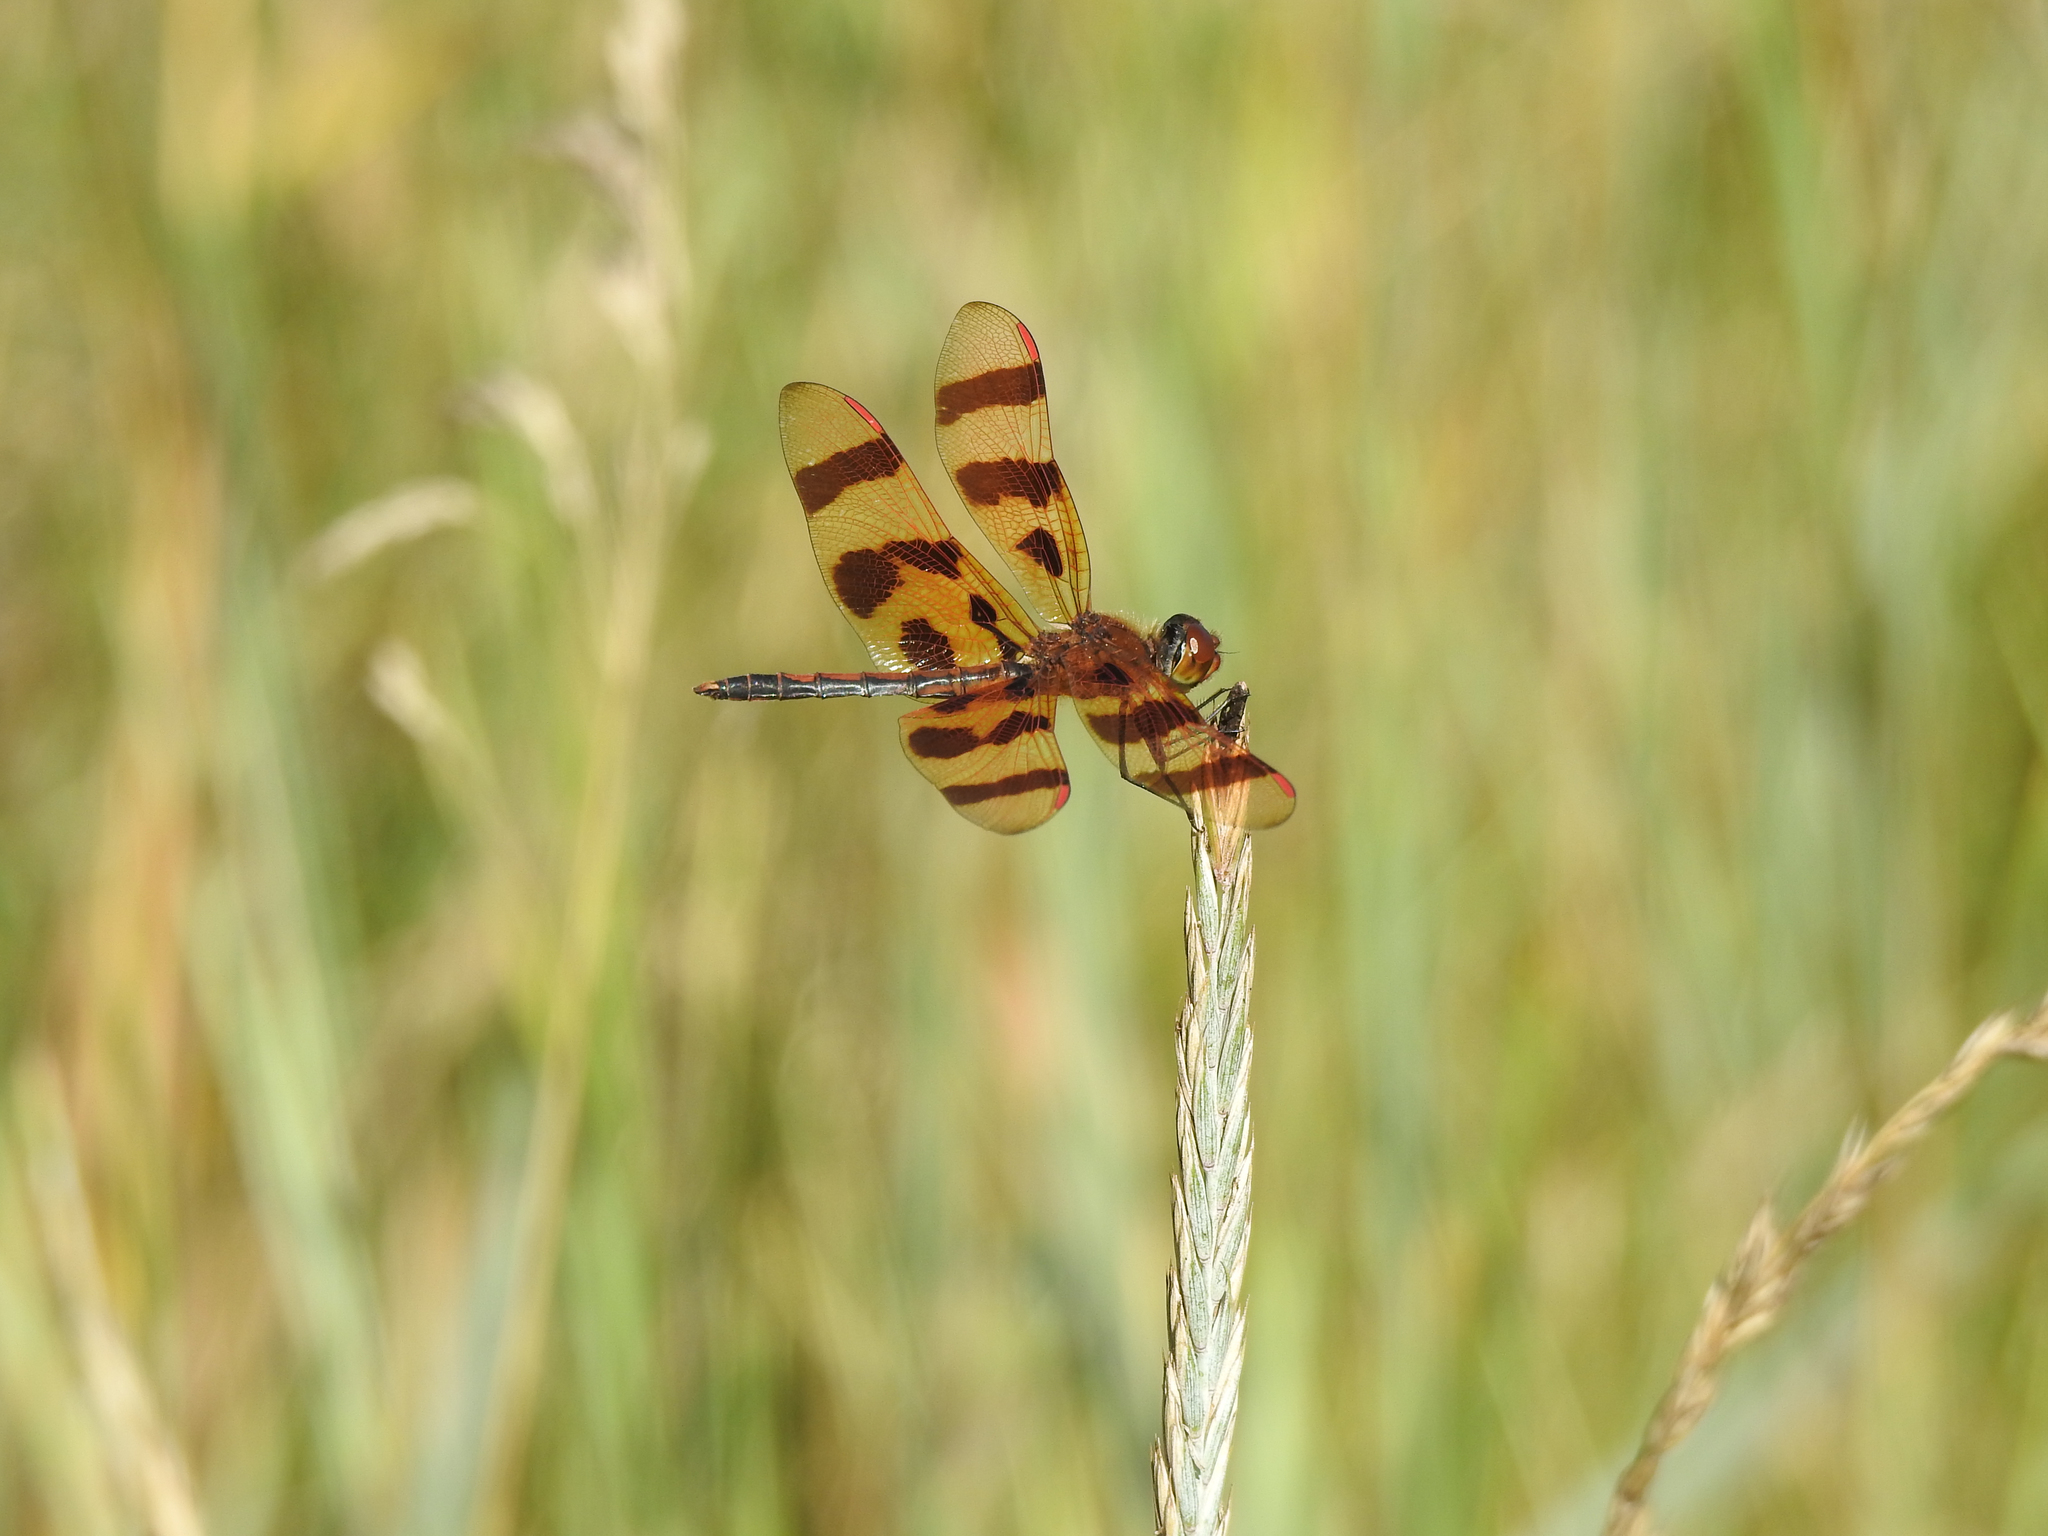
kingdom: Animalia
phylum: Arthropoda
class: Insecta
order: Odonata
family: Libellulidae
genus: Celithemis
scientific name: Celithemis eponina
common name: Halloween pennant
